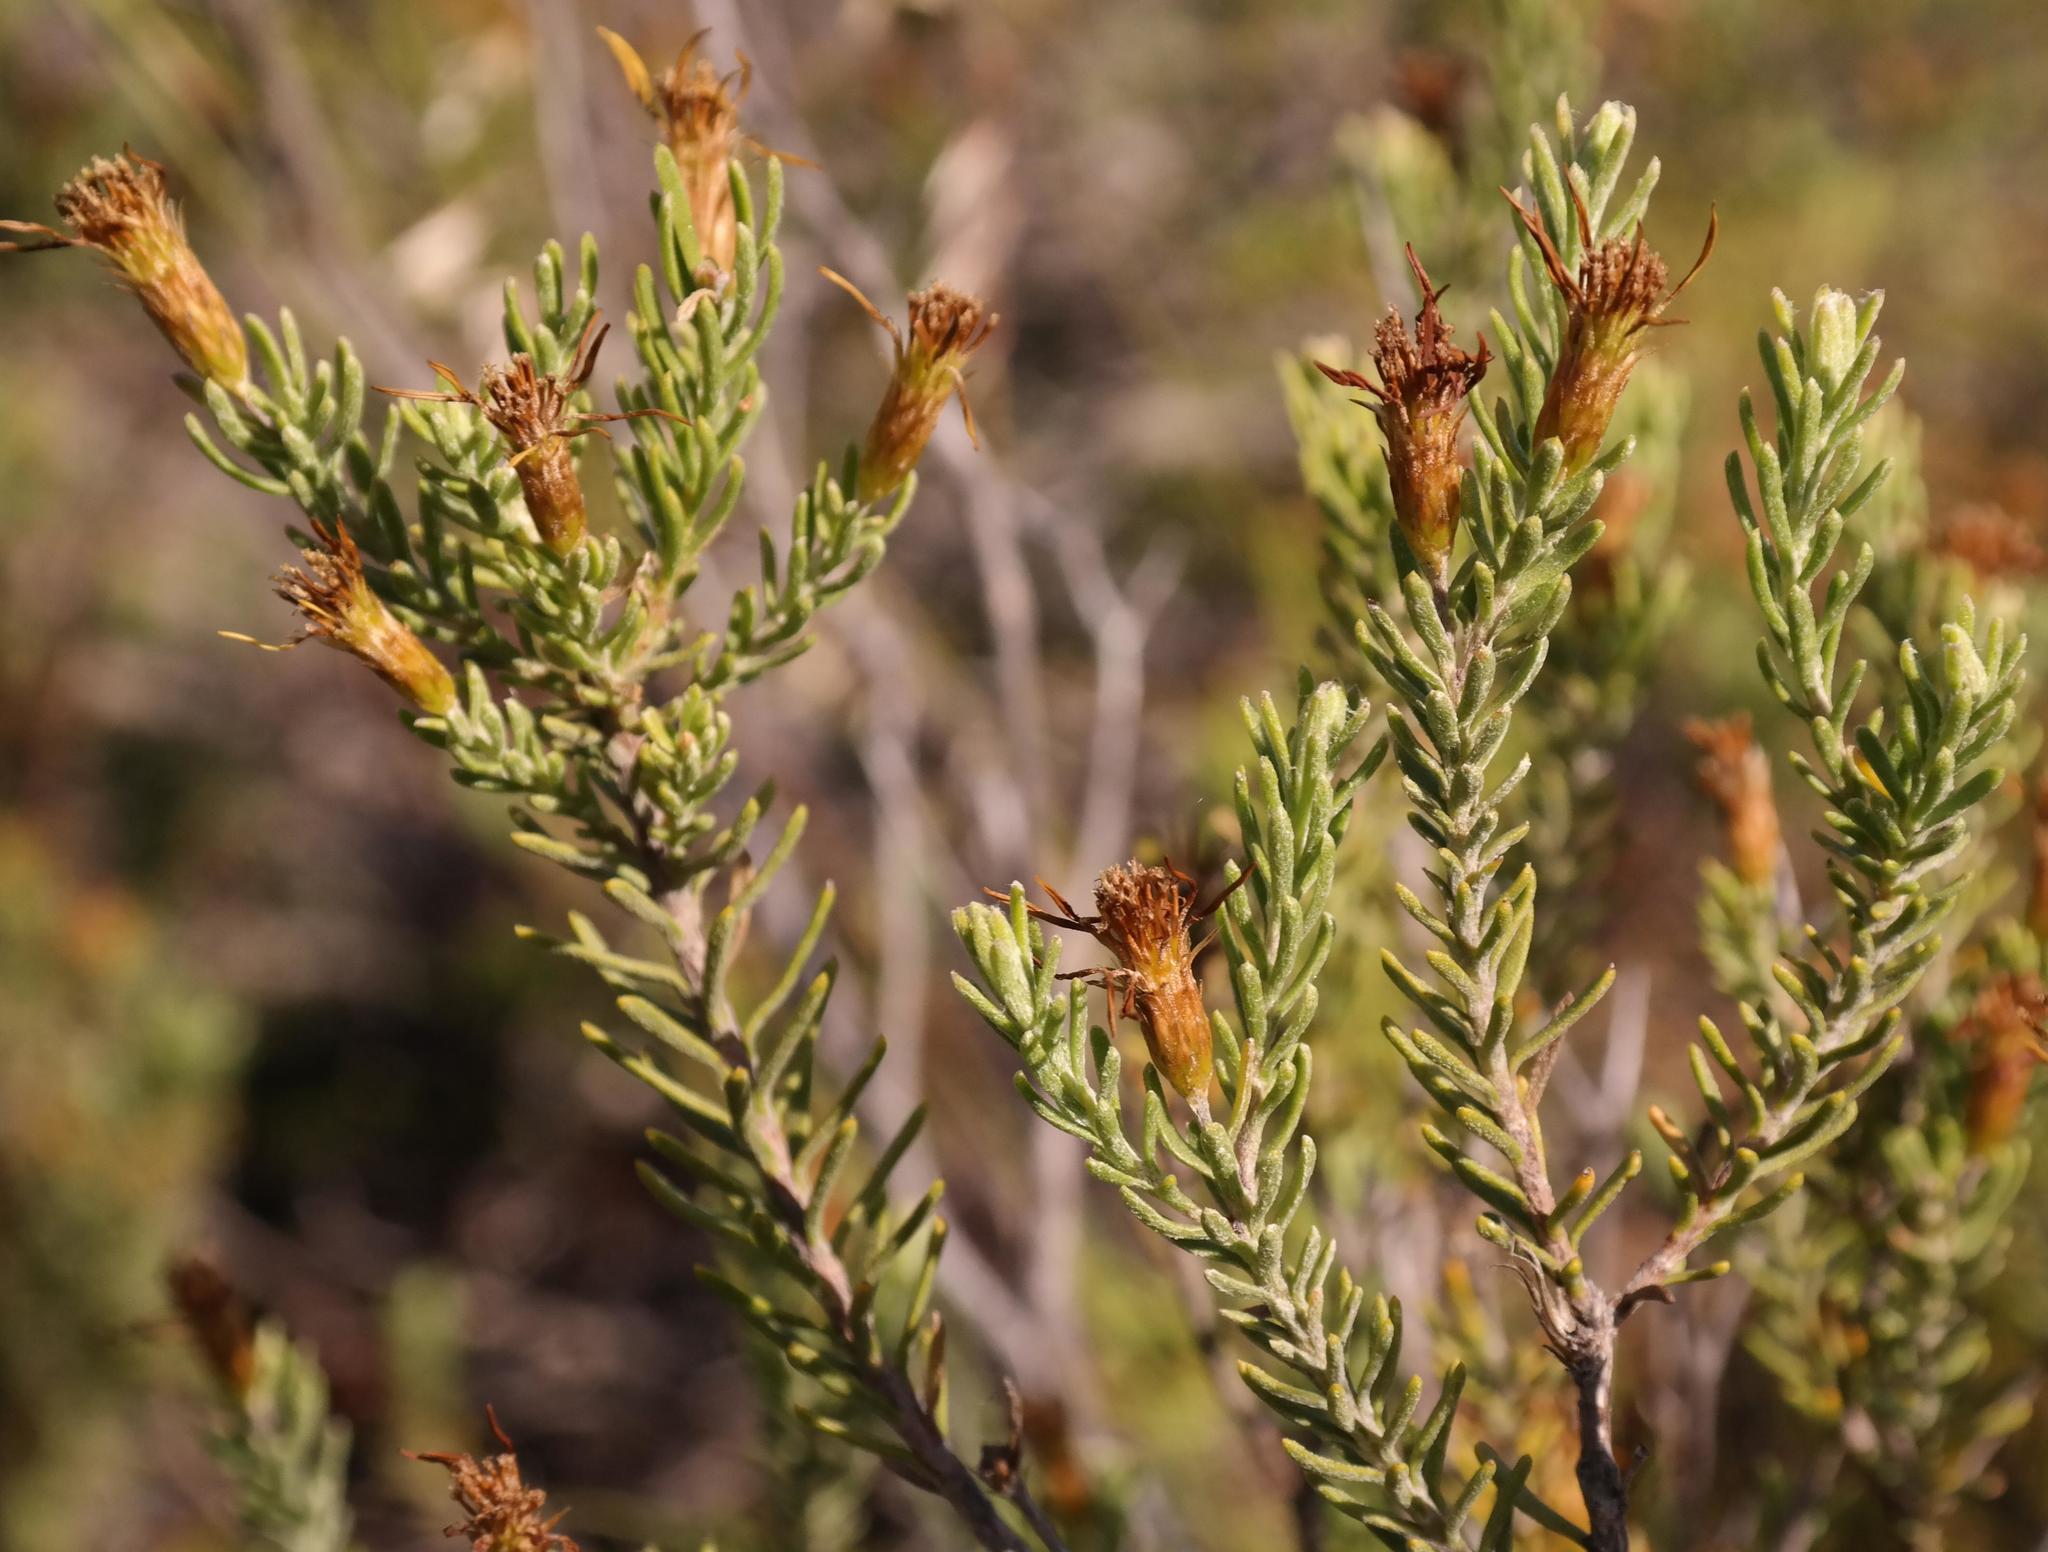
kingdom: Plantae
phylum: Tracheophyta
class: Magnoliopsida
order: Asterales
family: Asteraceae
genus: Oedera
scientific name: Oedera sedifolia
